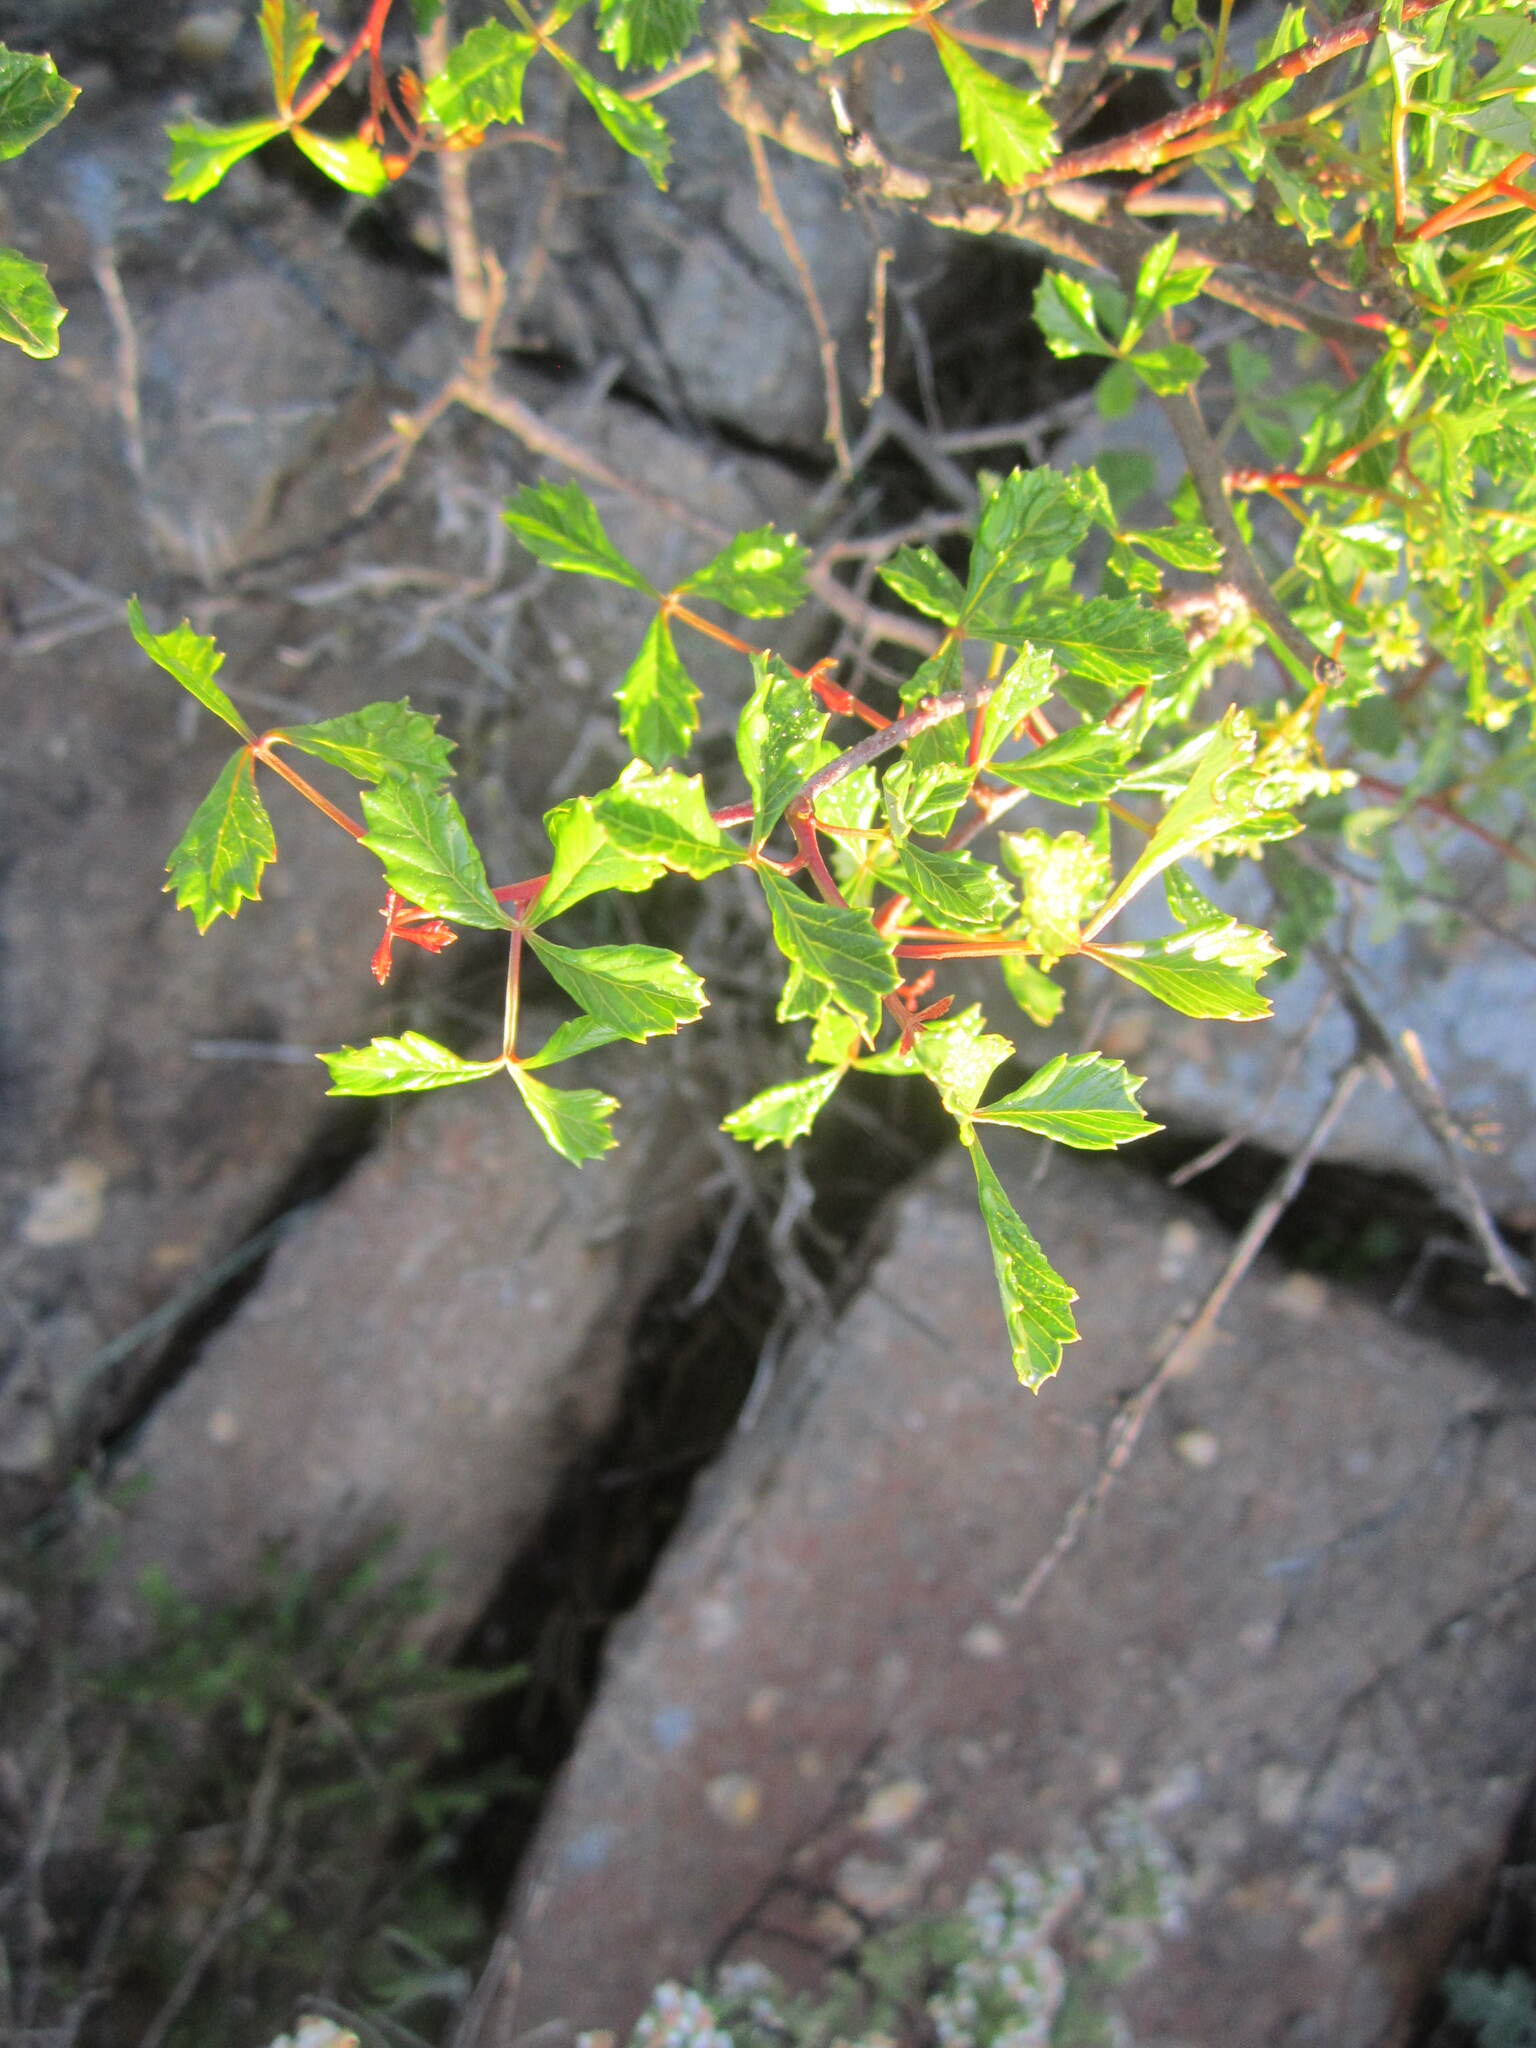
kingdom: Plantae
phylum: Tracheophyta
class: Magnoliopsida
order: Sapindales
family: Anacardiaceae
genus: Searsia
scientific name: Searsia dissecta
